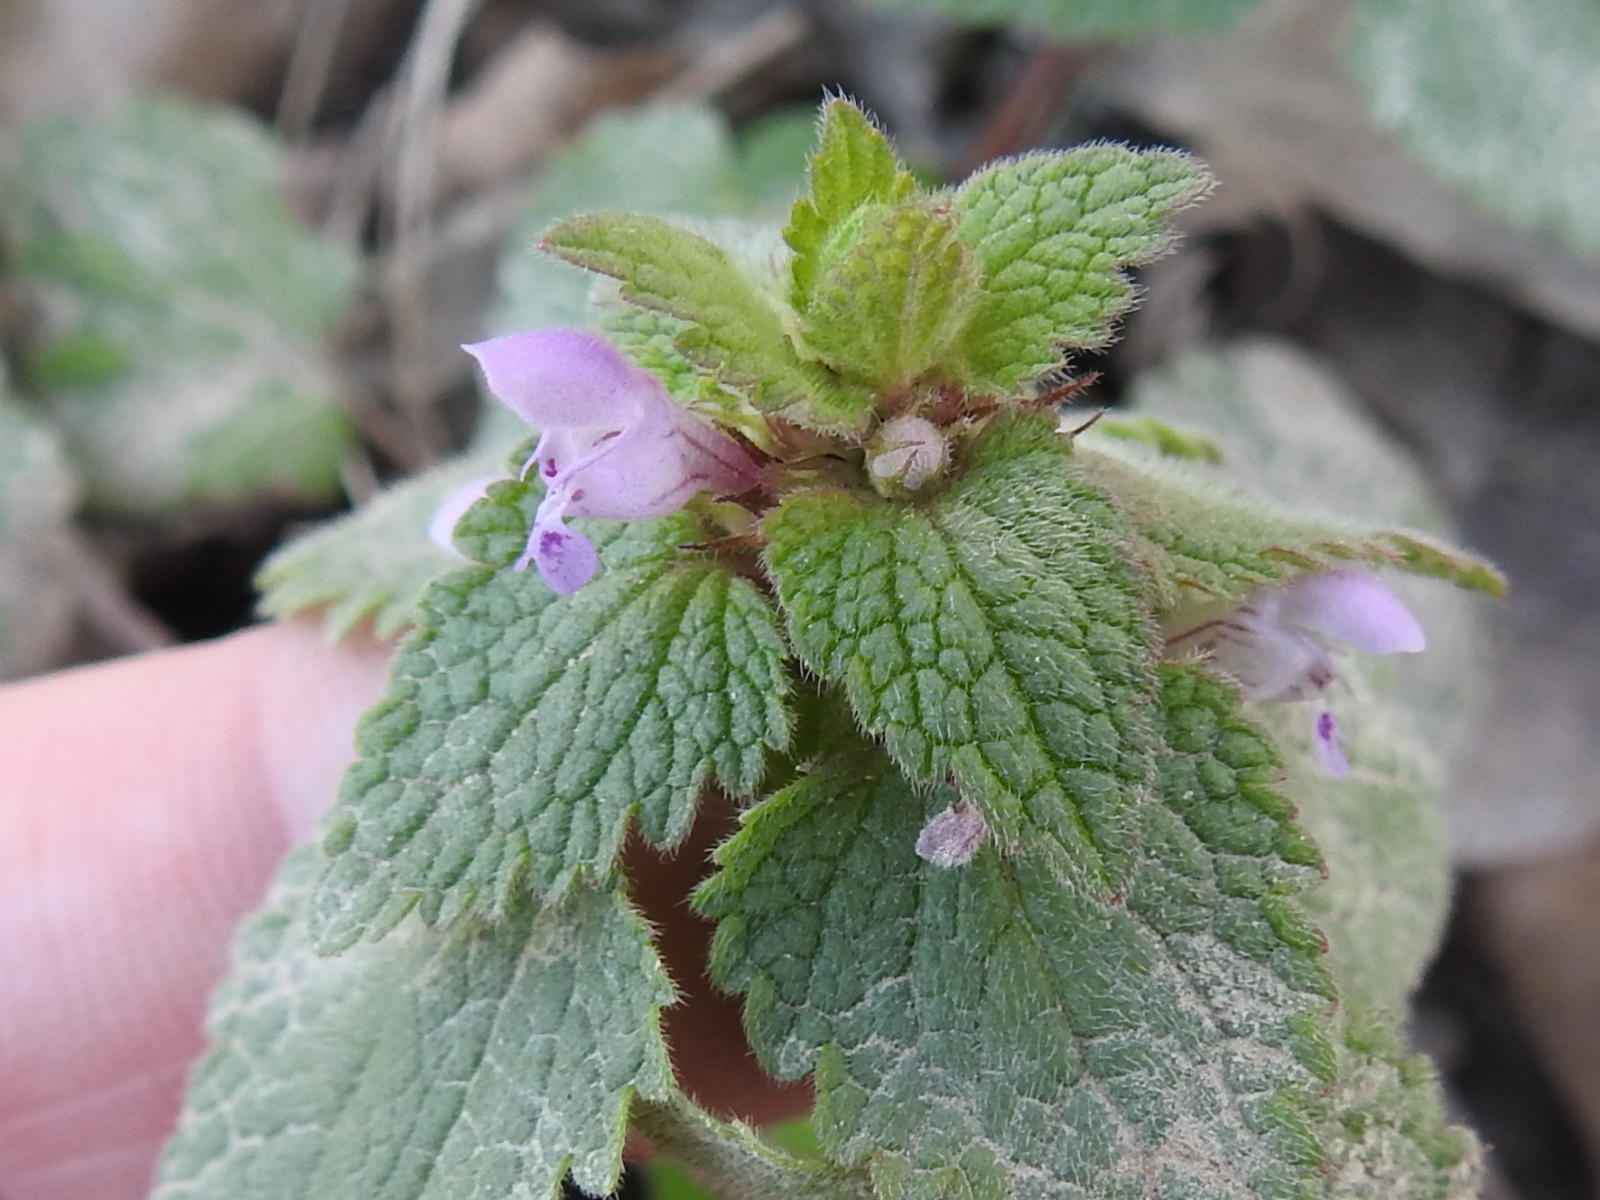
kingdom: Plantae
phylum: Tracheophyta
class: Magnoliopsida
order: Lamiales
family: Lamiaceae
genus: Lamium
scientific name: Lamium purpureum
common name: Red dead-nettle
